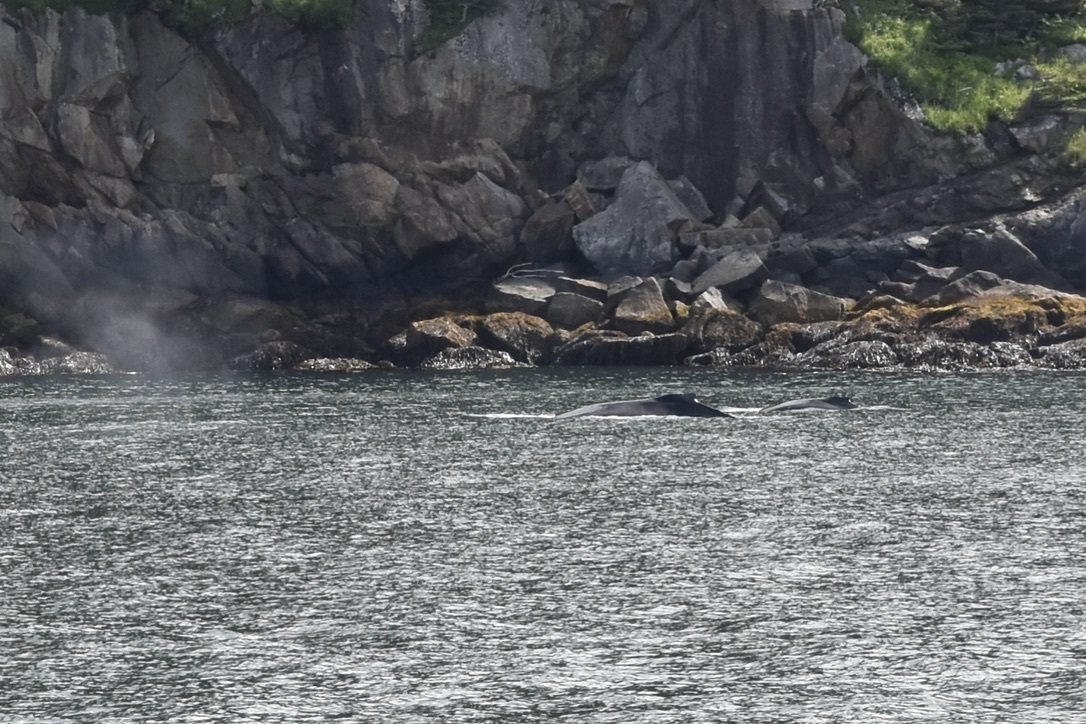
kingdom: Animalia
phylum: Chordata
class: Mammalia
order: Cetacea
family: Balaenopteridae
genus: Megaptera
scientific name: Megaptera novaeangliae
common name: Humpback whale
